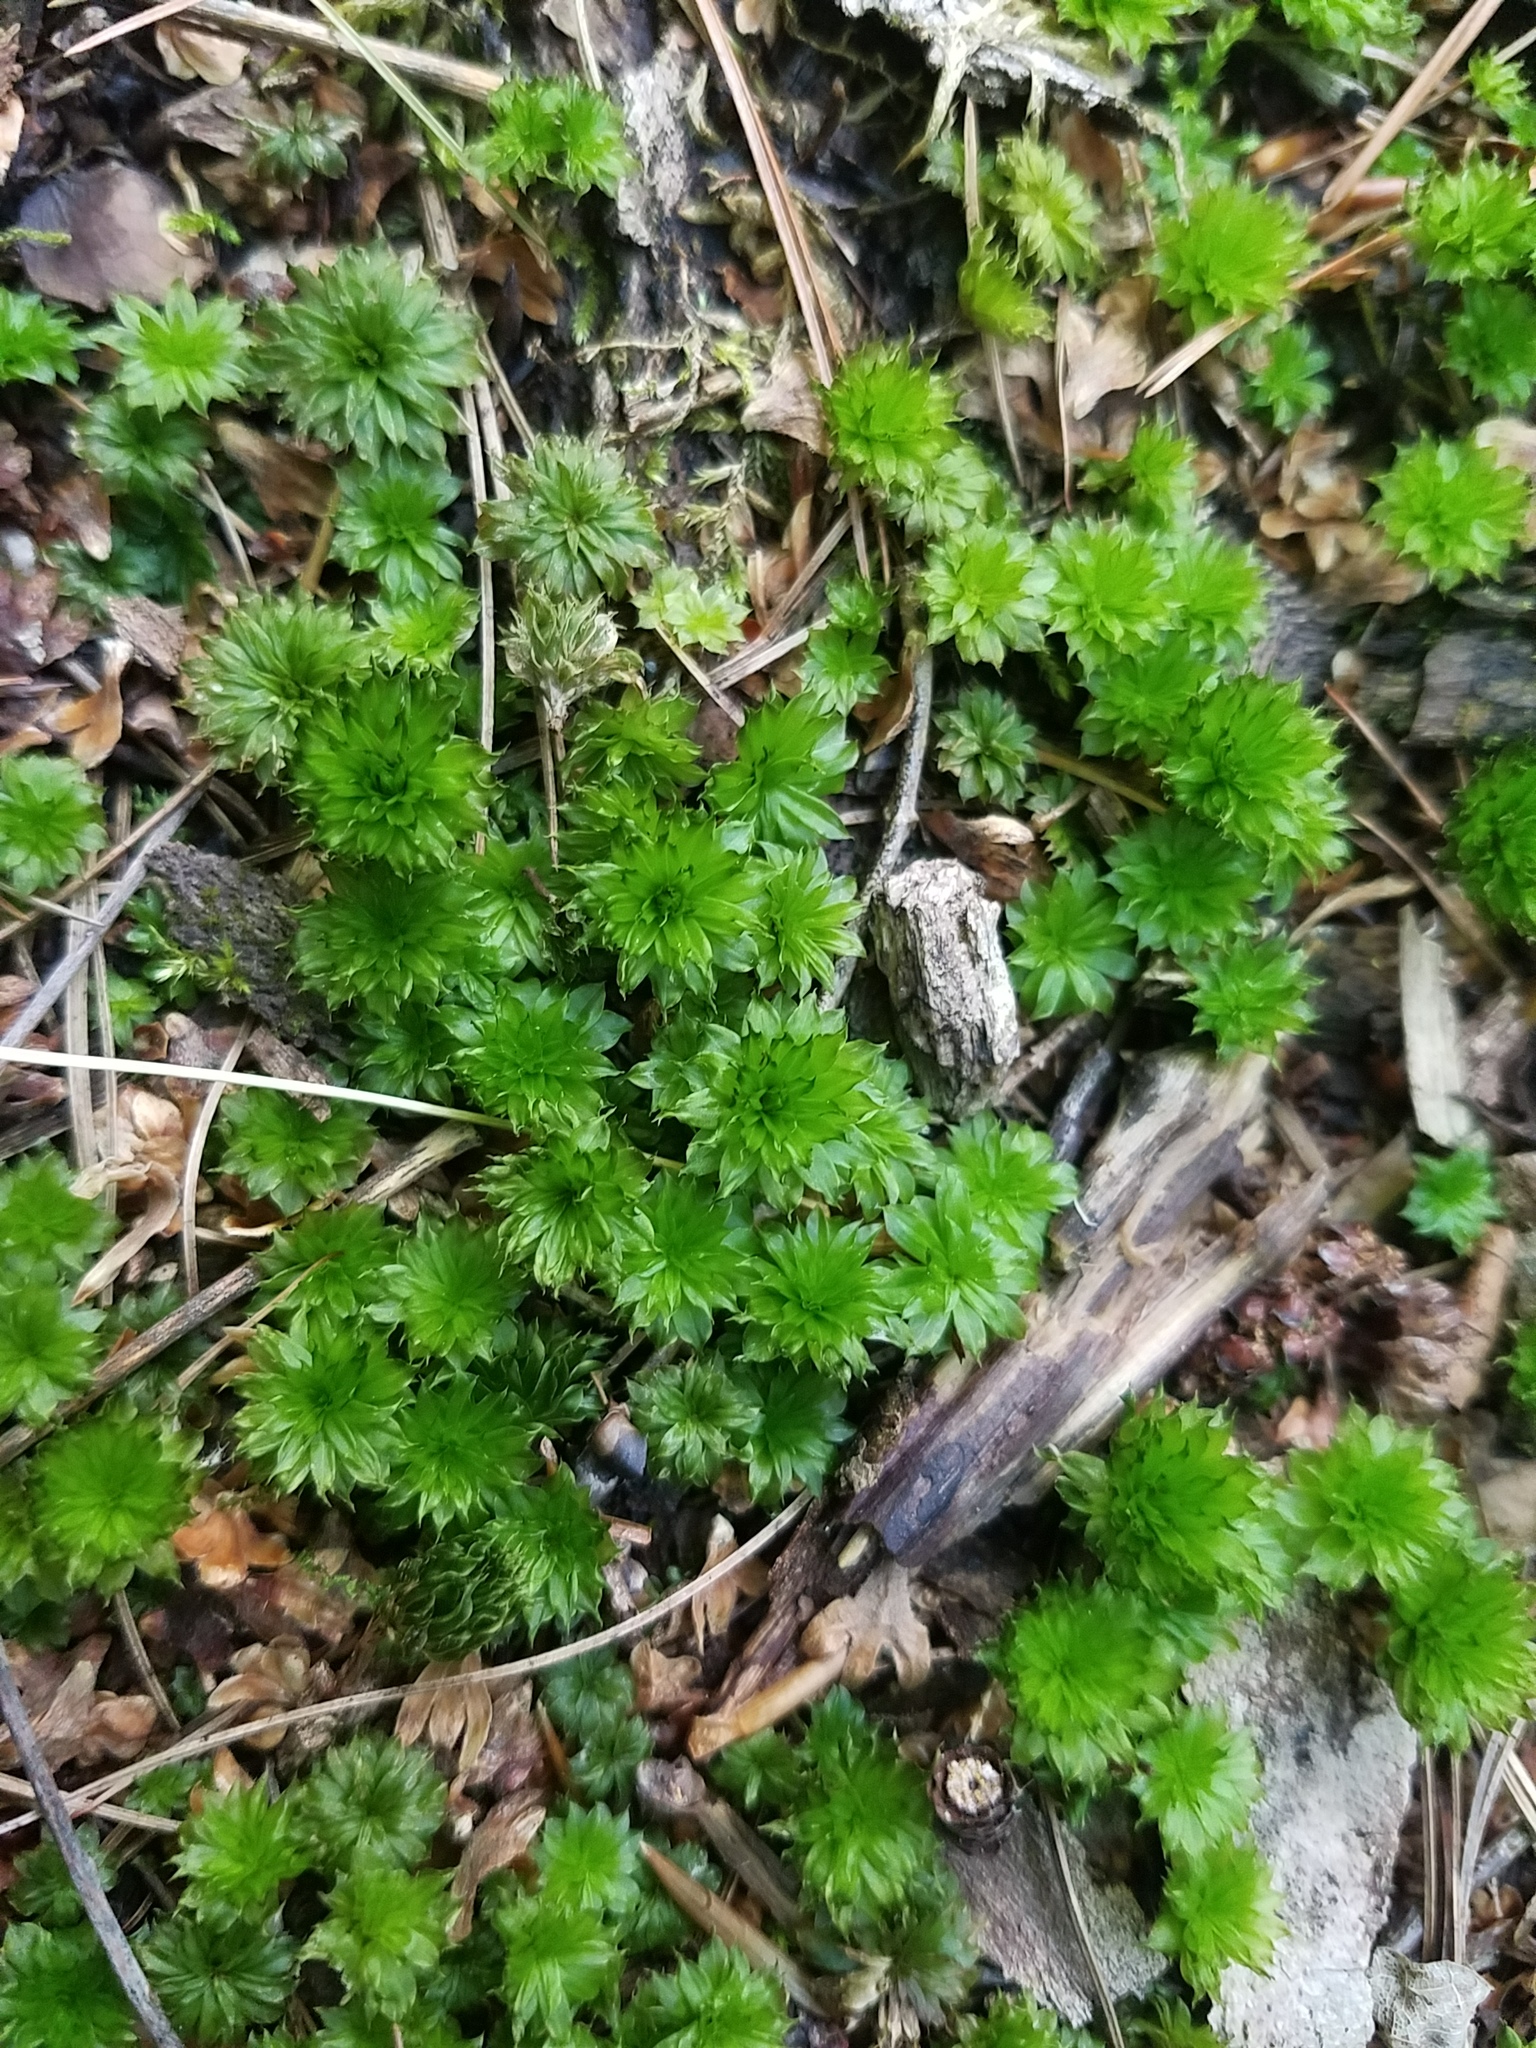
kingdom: Plantae
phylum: Bryophyta
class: Bryopsida
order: Bryales
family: Bryaceae
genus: Rhodobryum
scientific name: Rhodobryum ontariense
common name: Ontario rhodobryum moss
